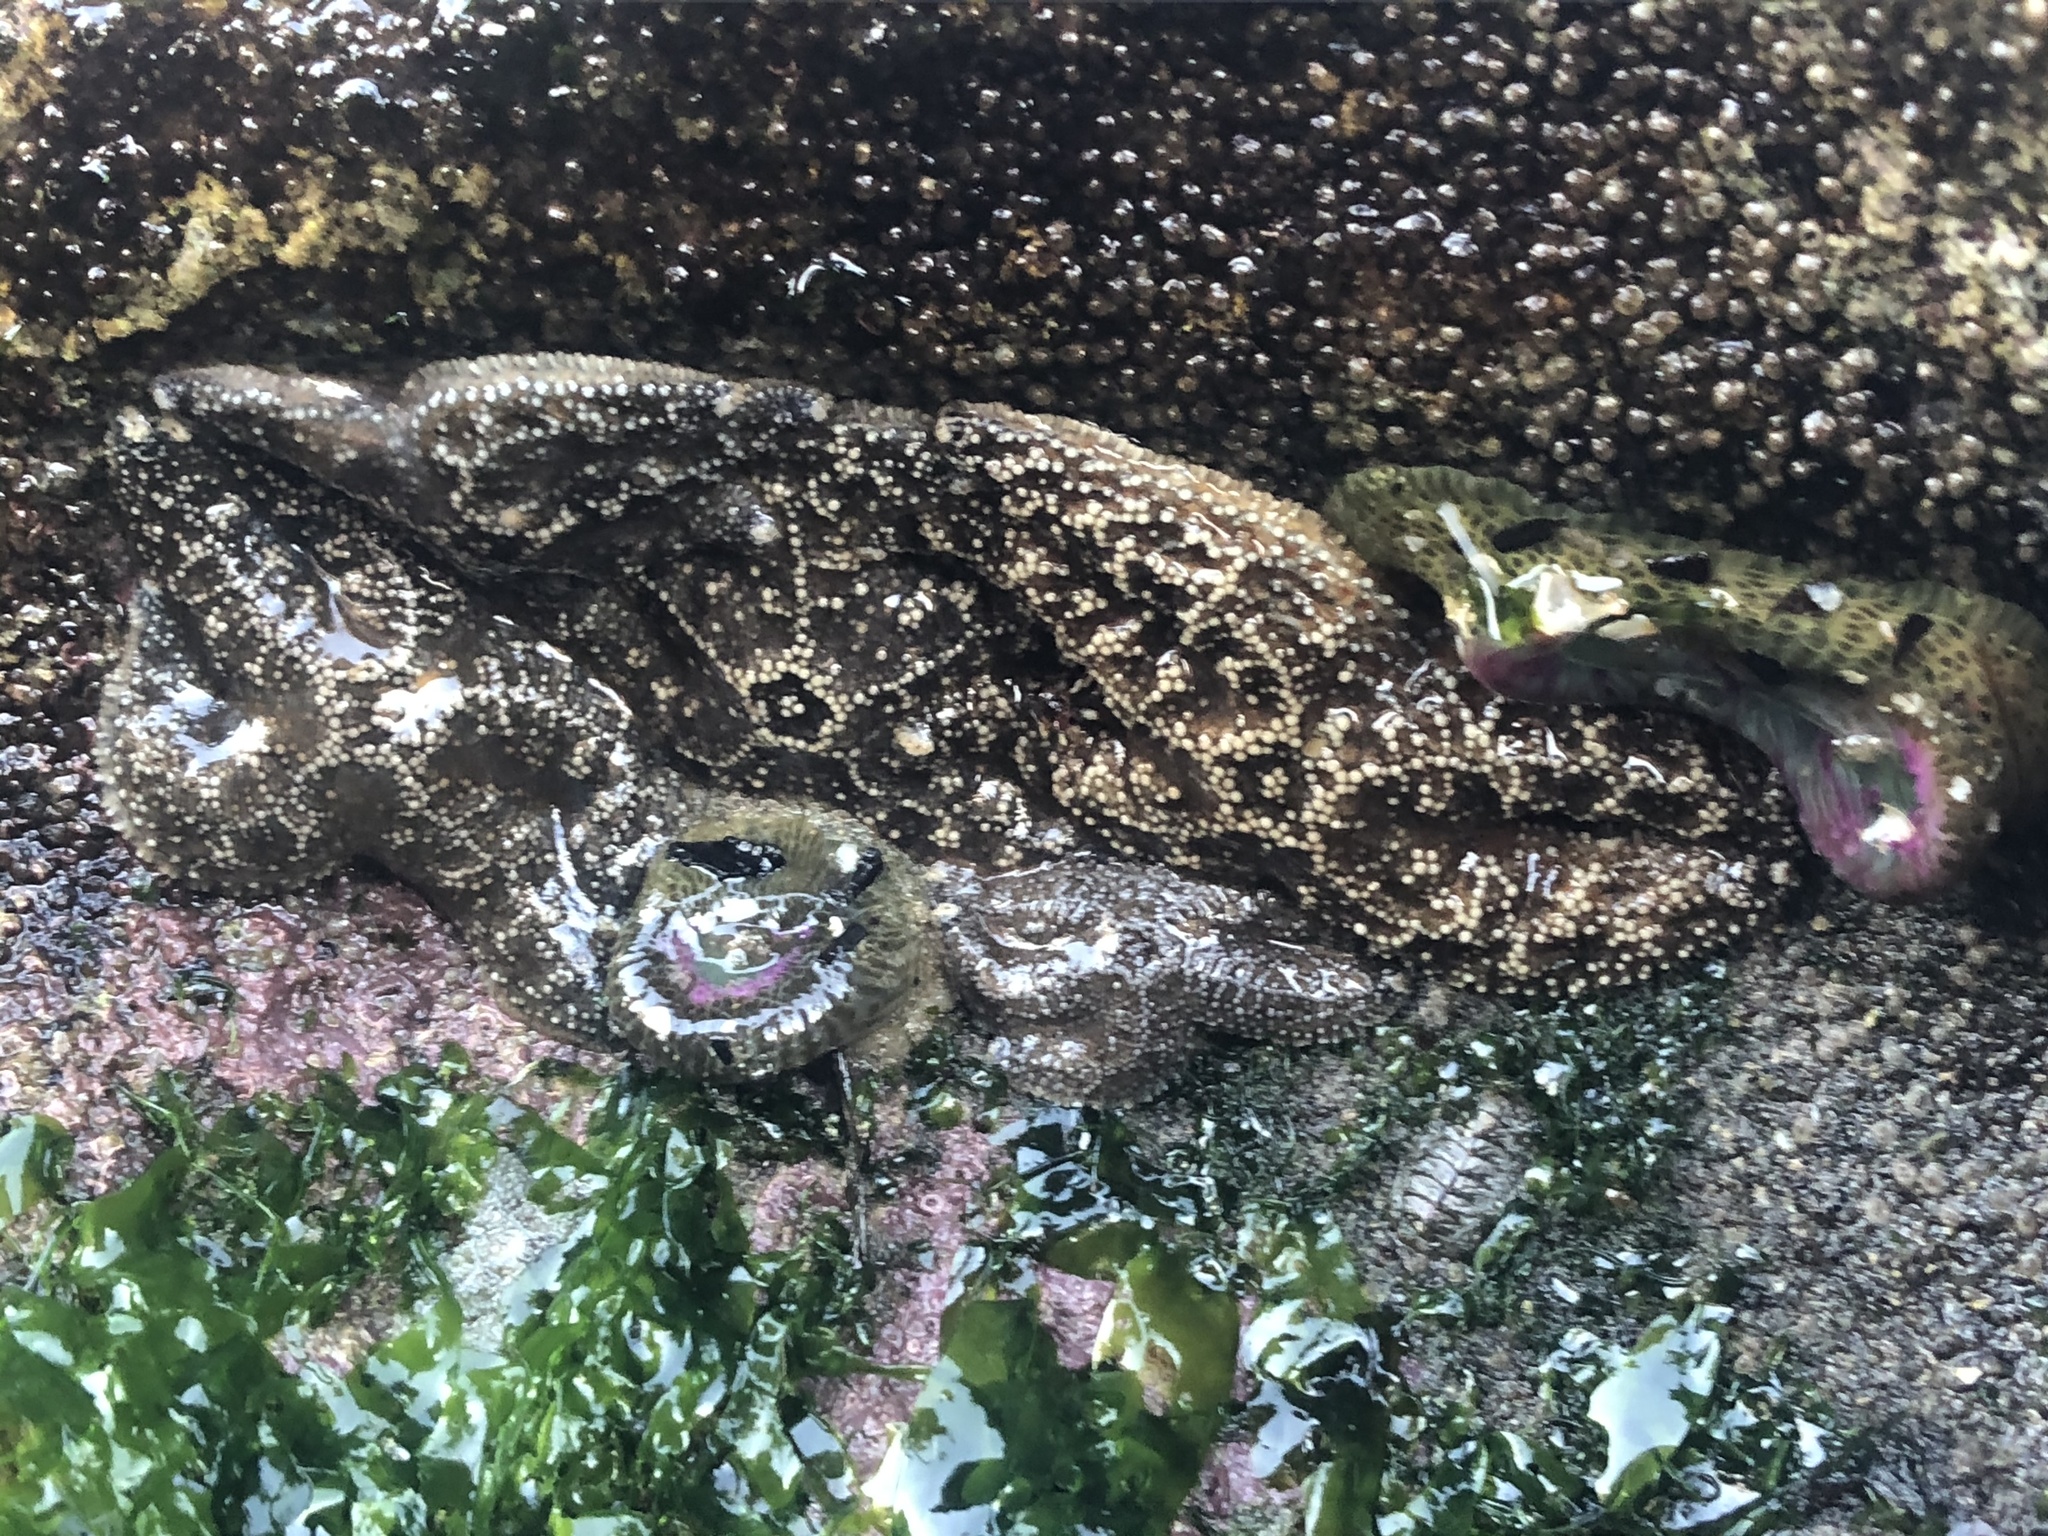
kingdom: Animalia
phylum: Echinodermata
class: Asteroidea
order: Forcipulatida
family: Asteriidae
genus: Pisaster
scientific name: Pisaster ochraceus
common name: Ochre stars
